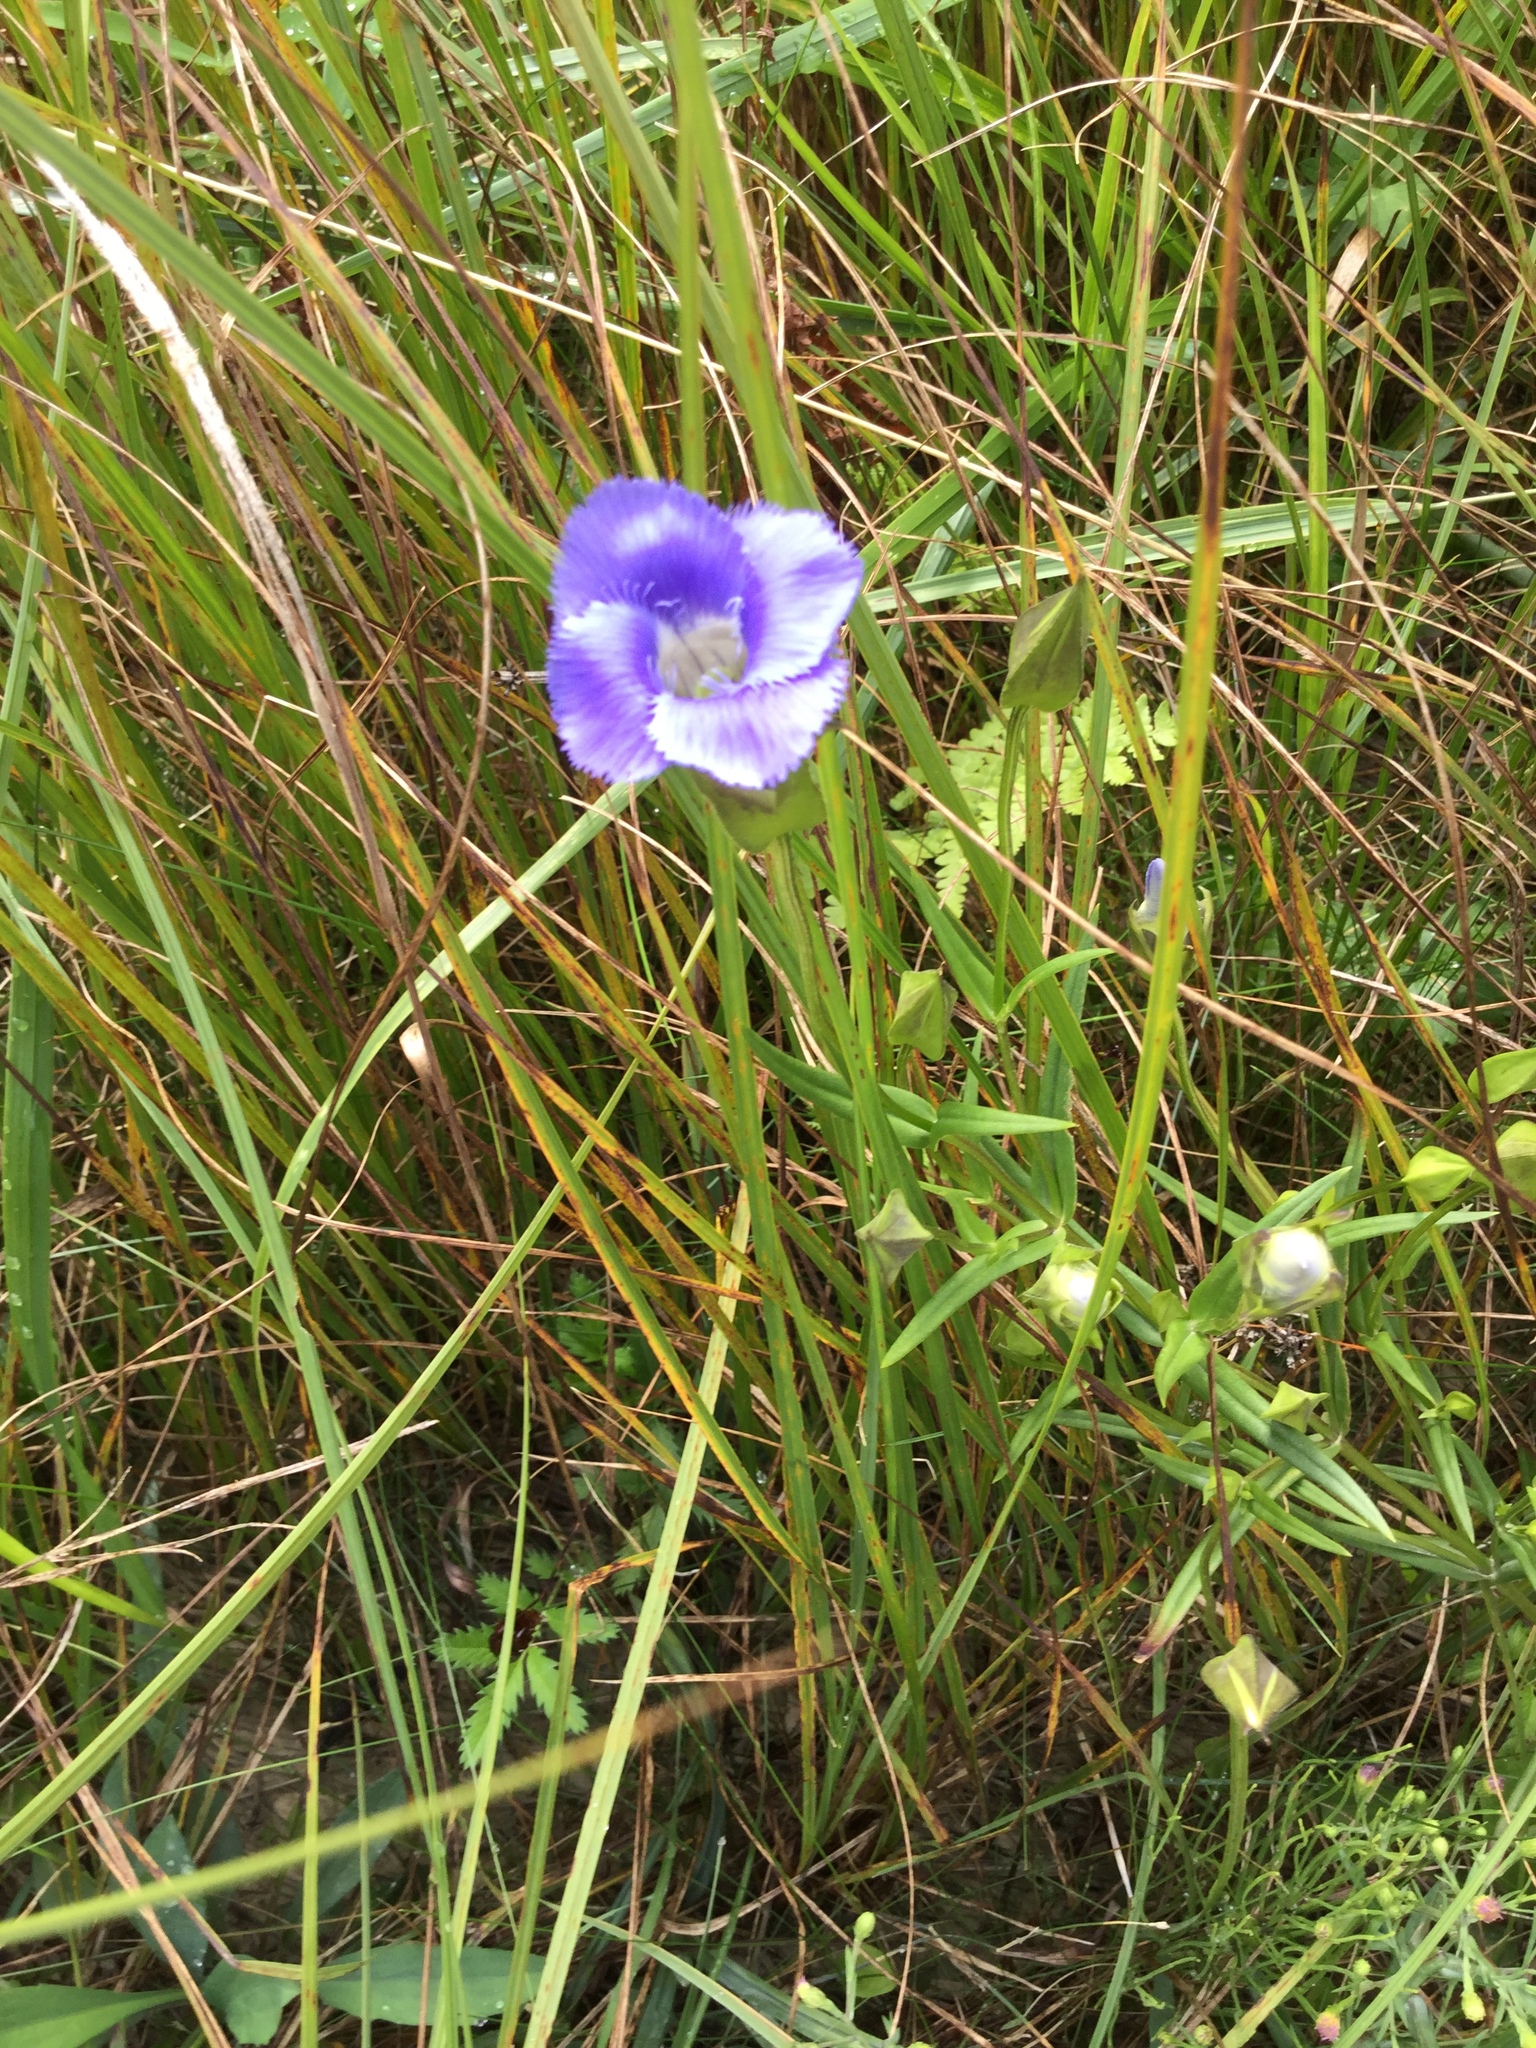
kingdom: Plantae
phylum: Tracheophyta
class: Magnoliopsida
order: Gentianales
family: Gentianaceae
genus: Gentianopsis
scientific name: Gentianopsis virgata
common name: Lesser fringed-gentian
